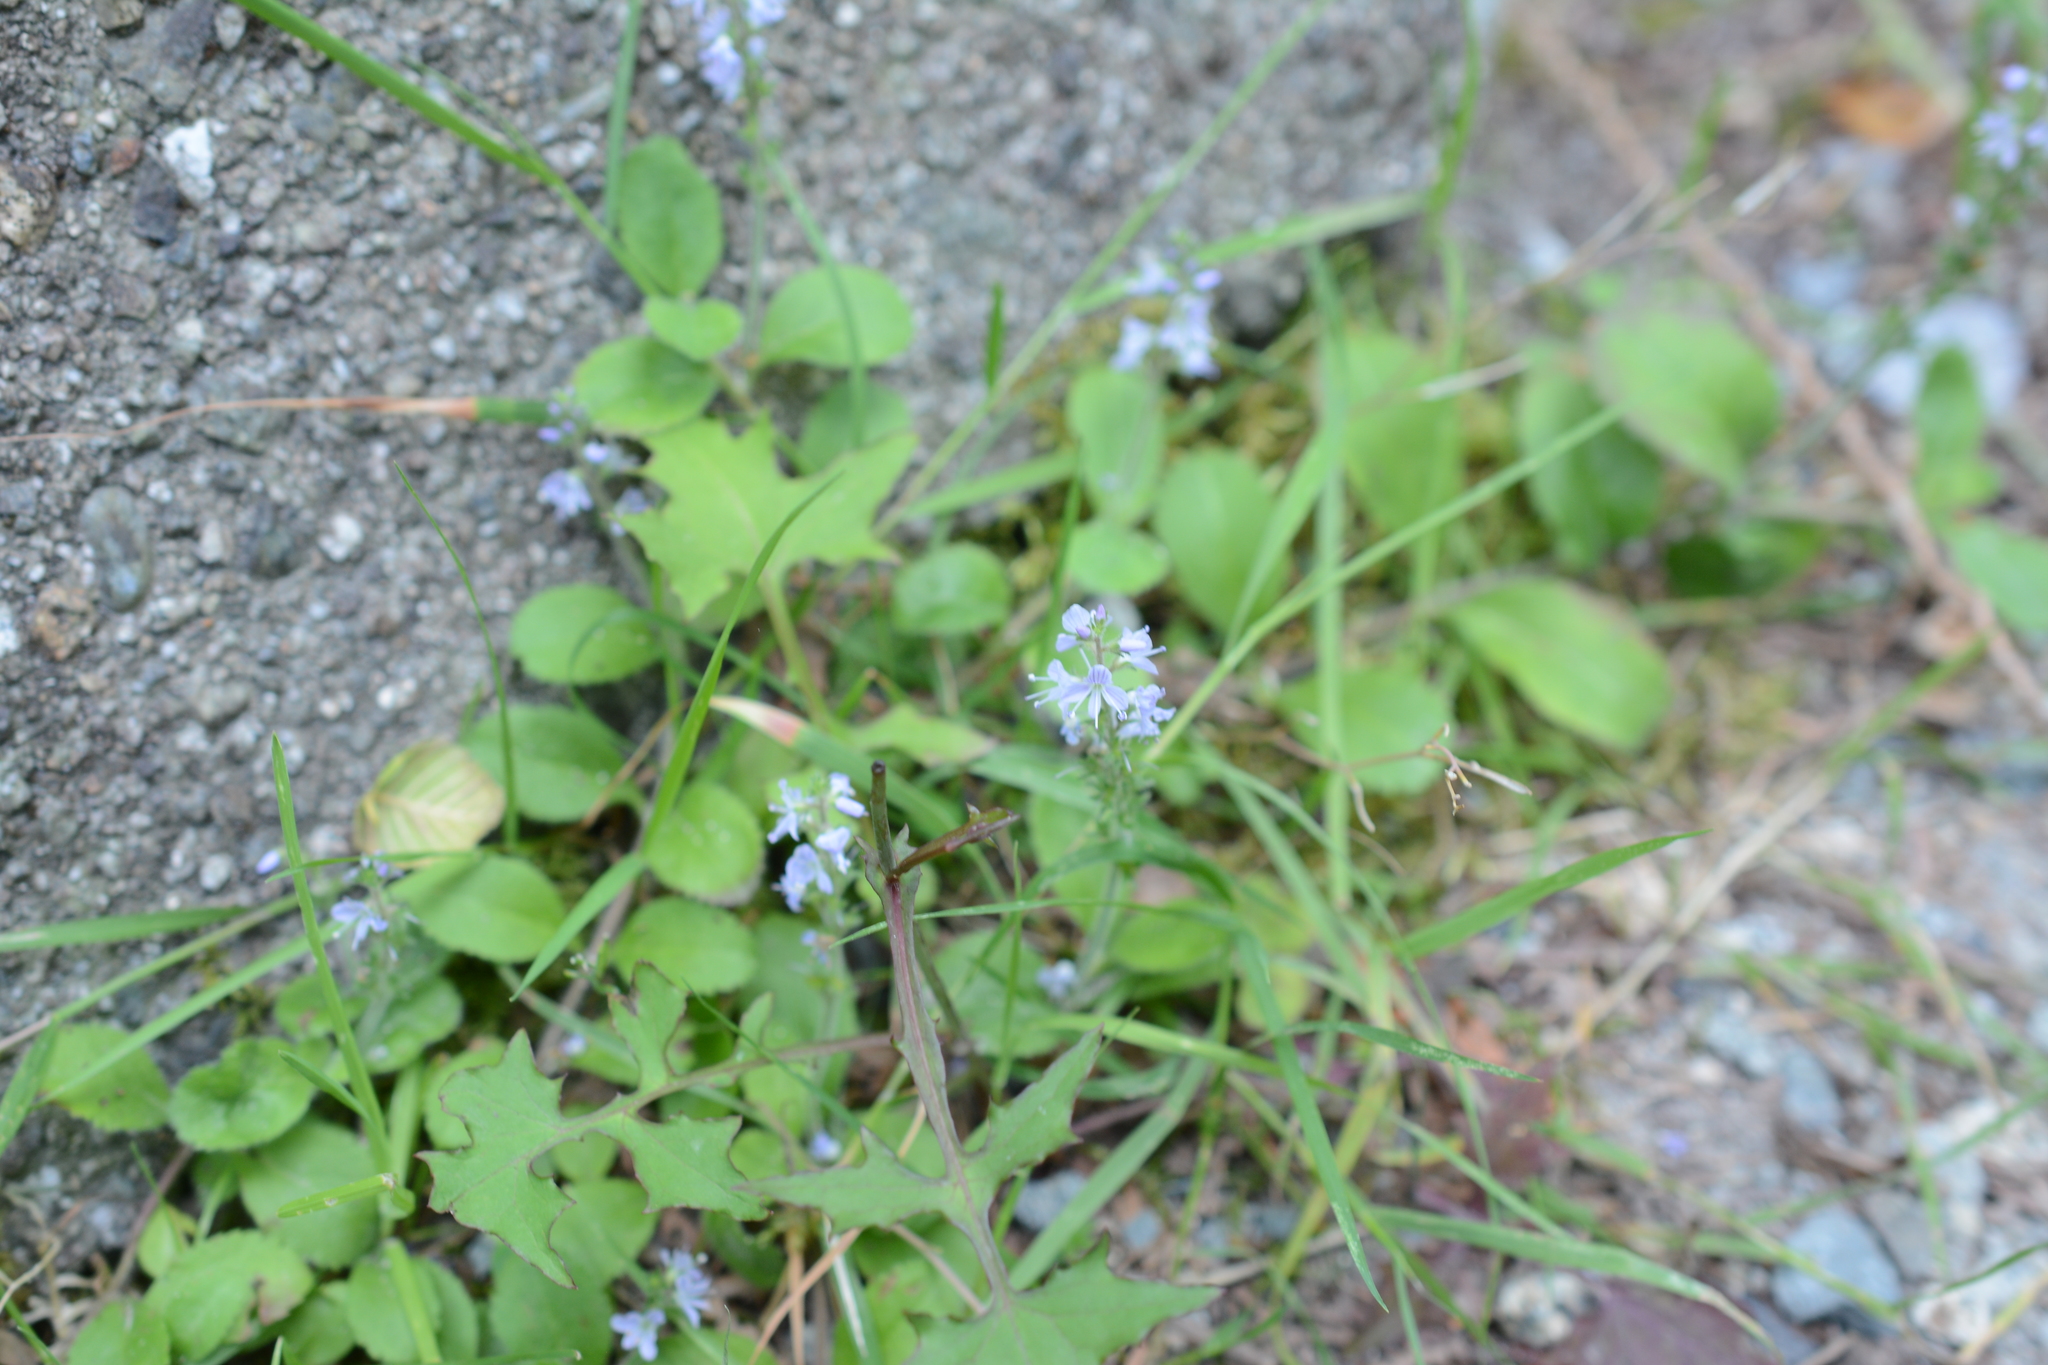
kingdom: Plantae
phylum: Tracheophyta
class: Magnoliopsida
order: Lamiales
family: Plantaginaceae
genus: Veronica
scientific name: Veronica officinalis
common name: Common speedwell
